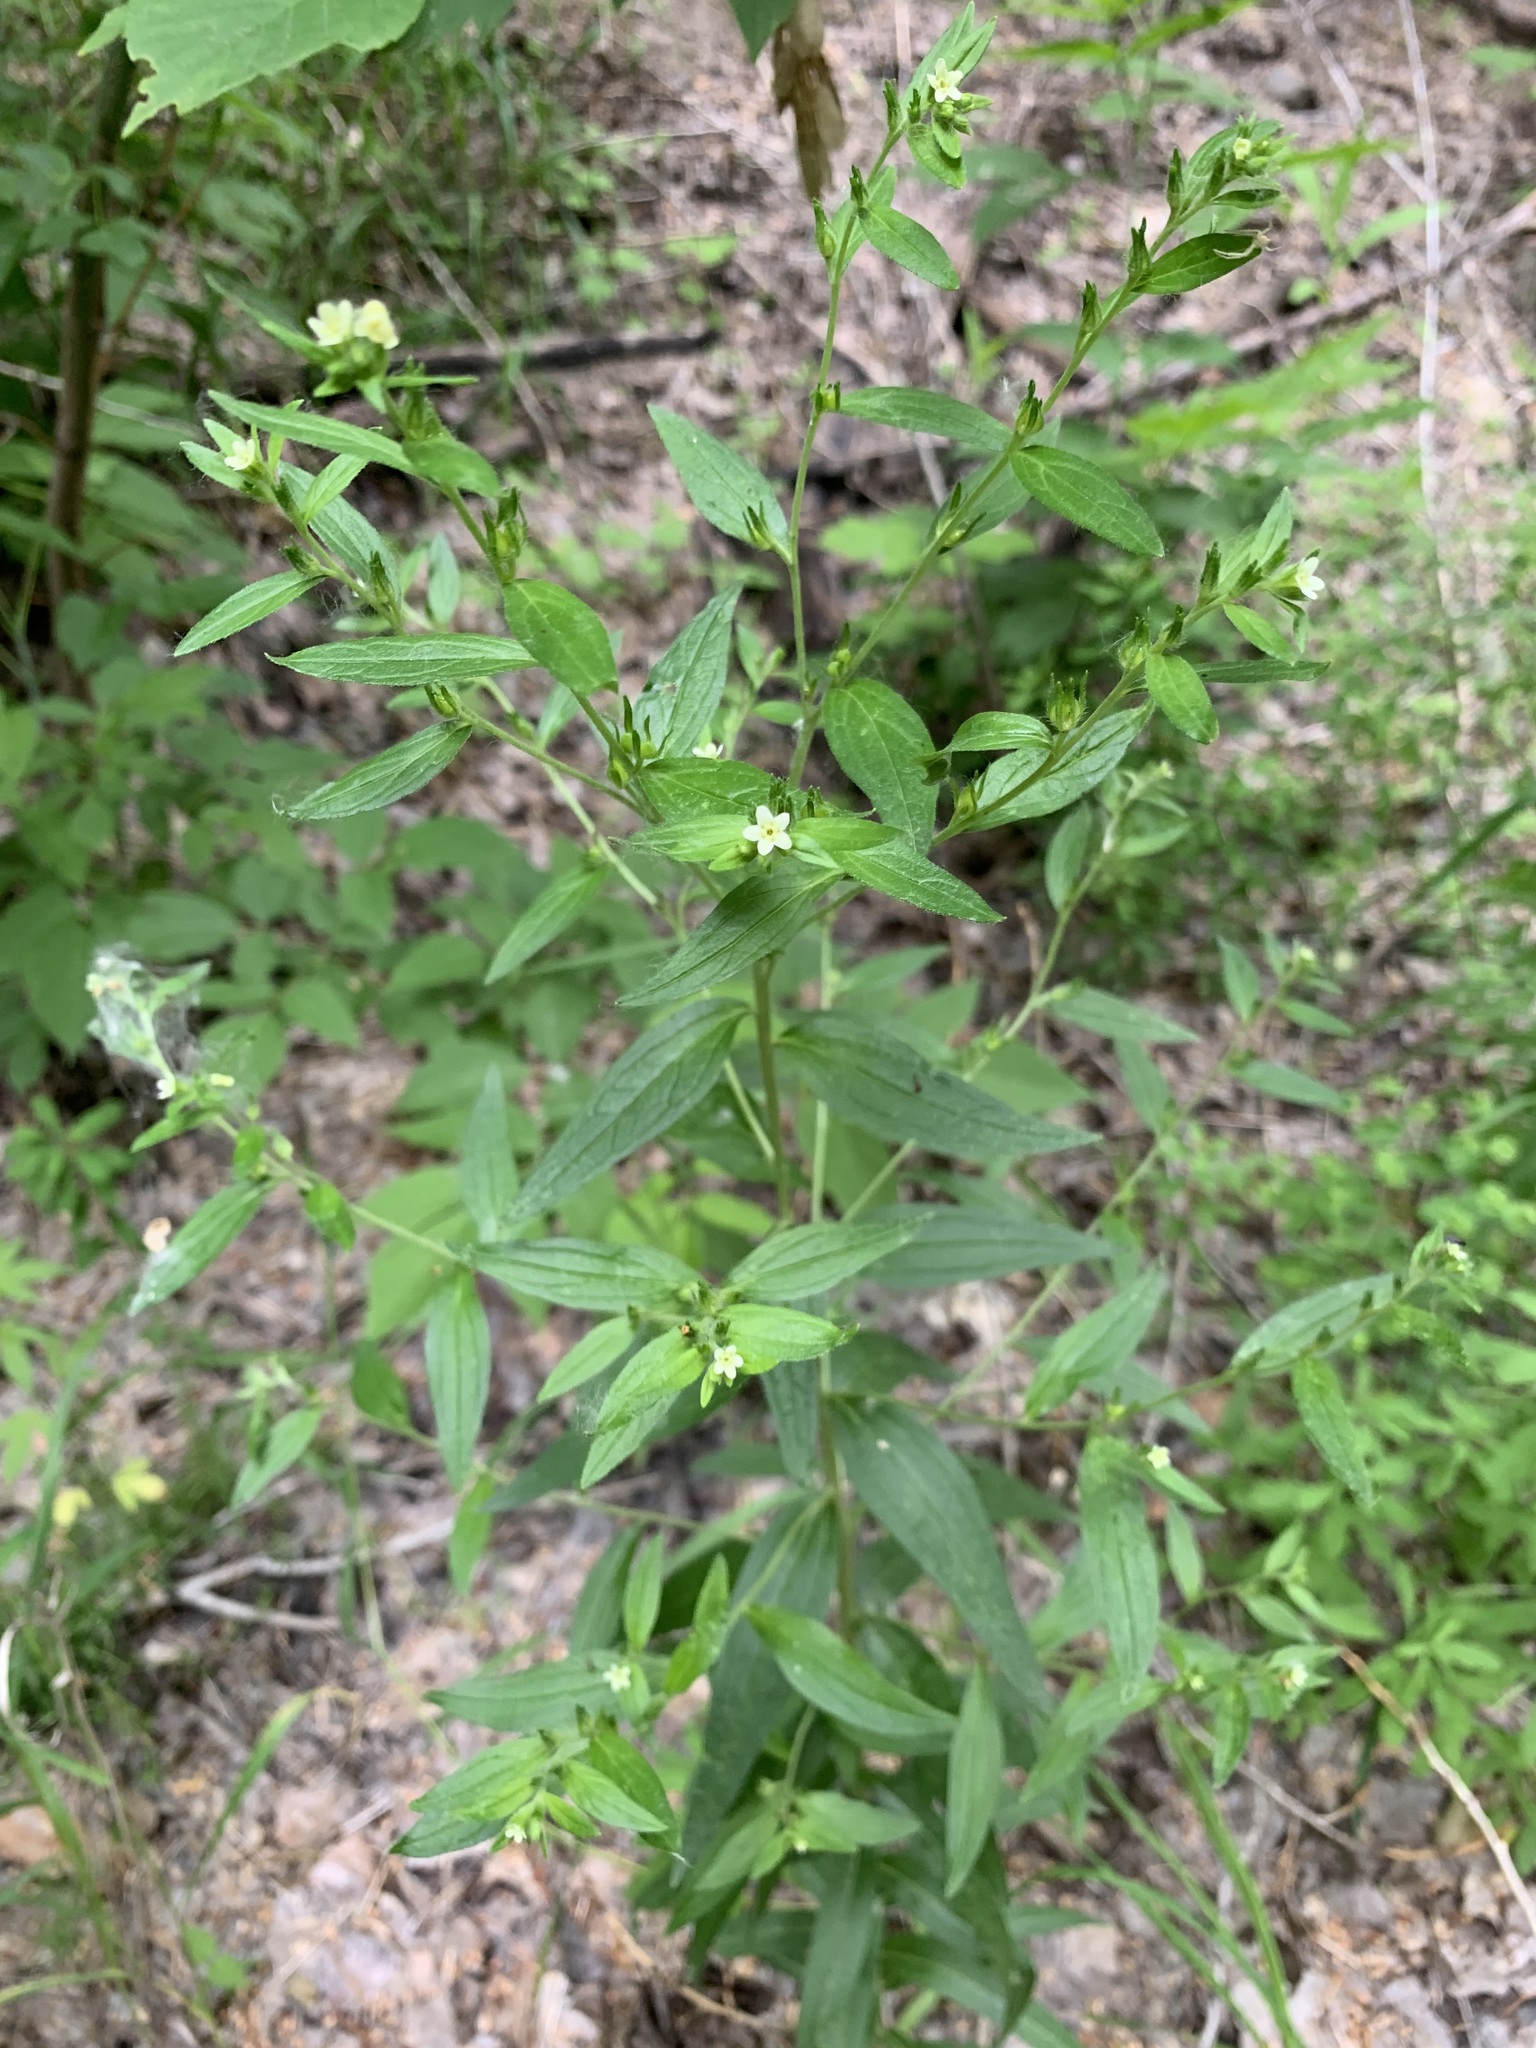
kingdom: Plantae
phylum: Tracheophyta
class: Magnoliopsida
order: Boraginales
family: Boraginaceae
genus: Lithospermum
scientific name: Lithospermum officinale
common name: Common gromwell
